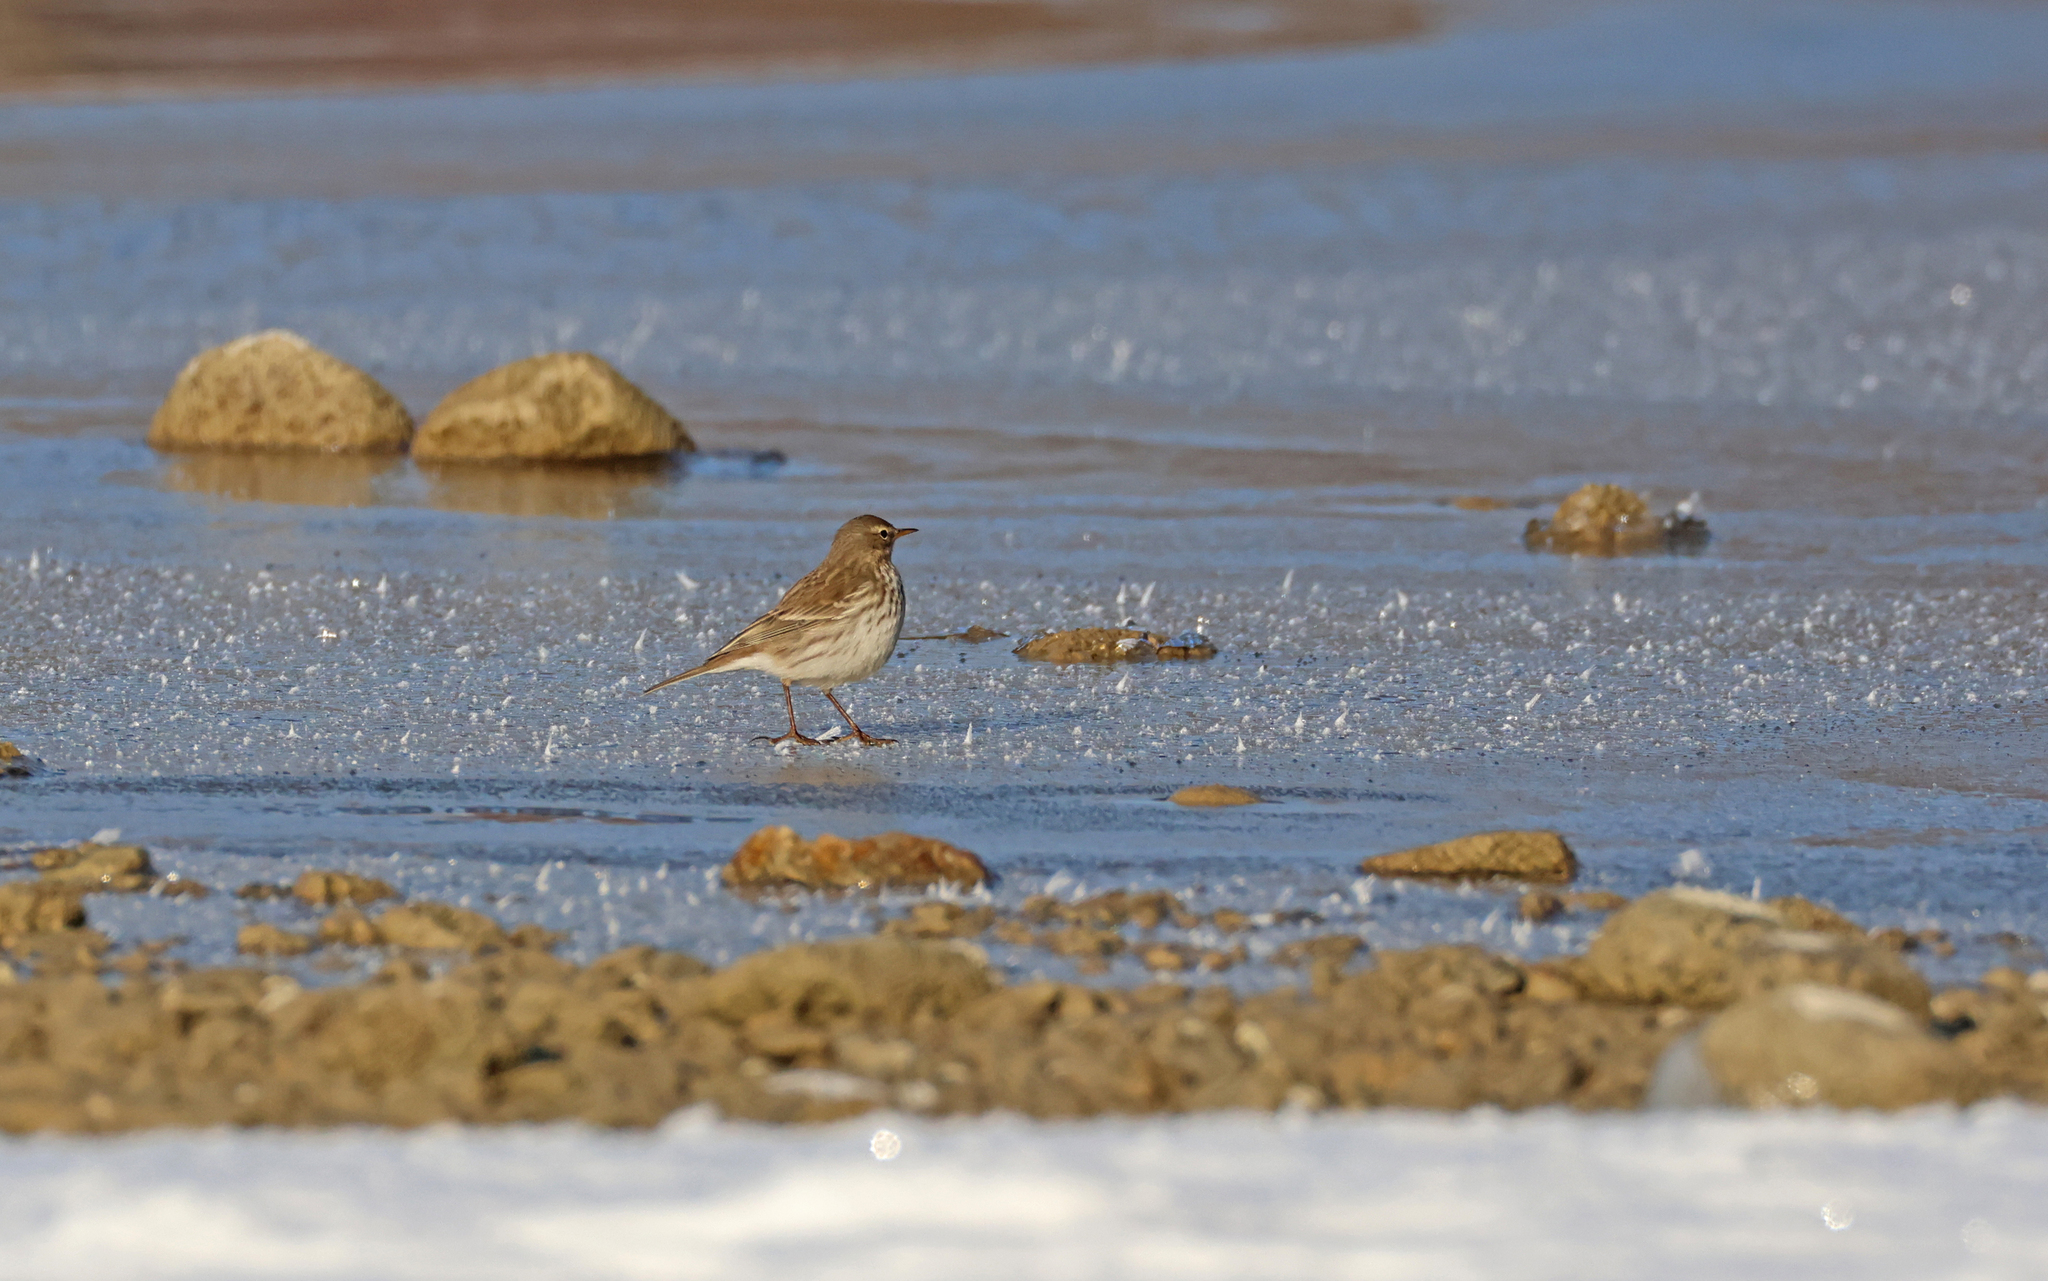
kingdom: Animalia
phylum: Chordata
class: Aves
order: Passeriformes
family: Motacillidae
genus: Anthus
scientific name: Anthus spinoletta
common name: Water pipit
